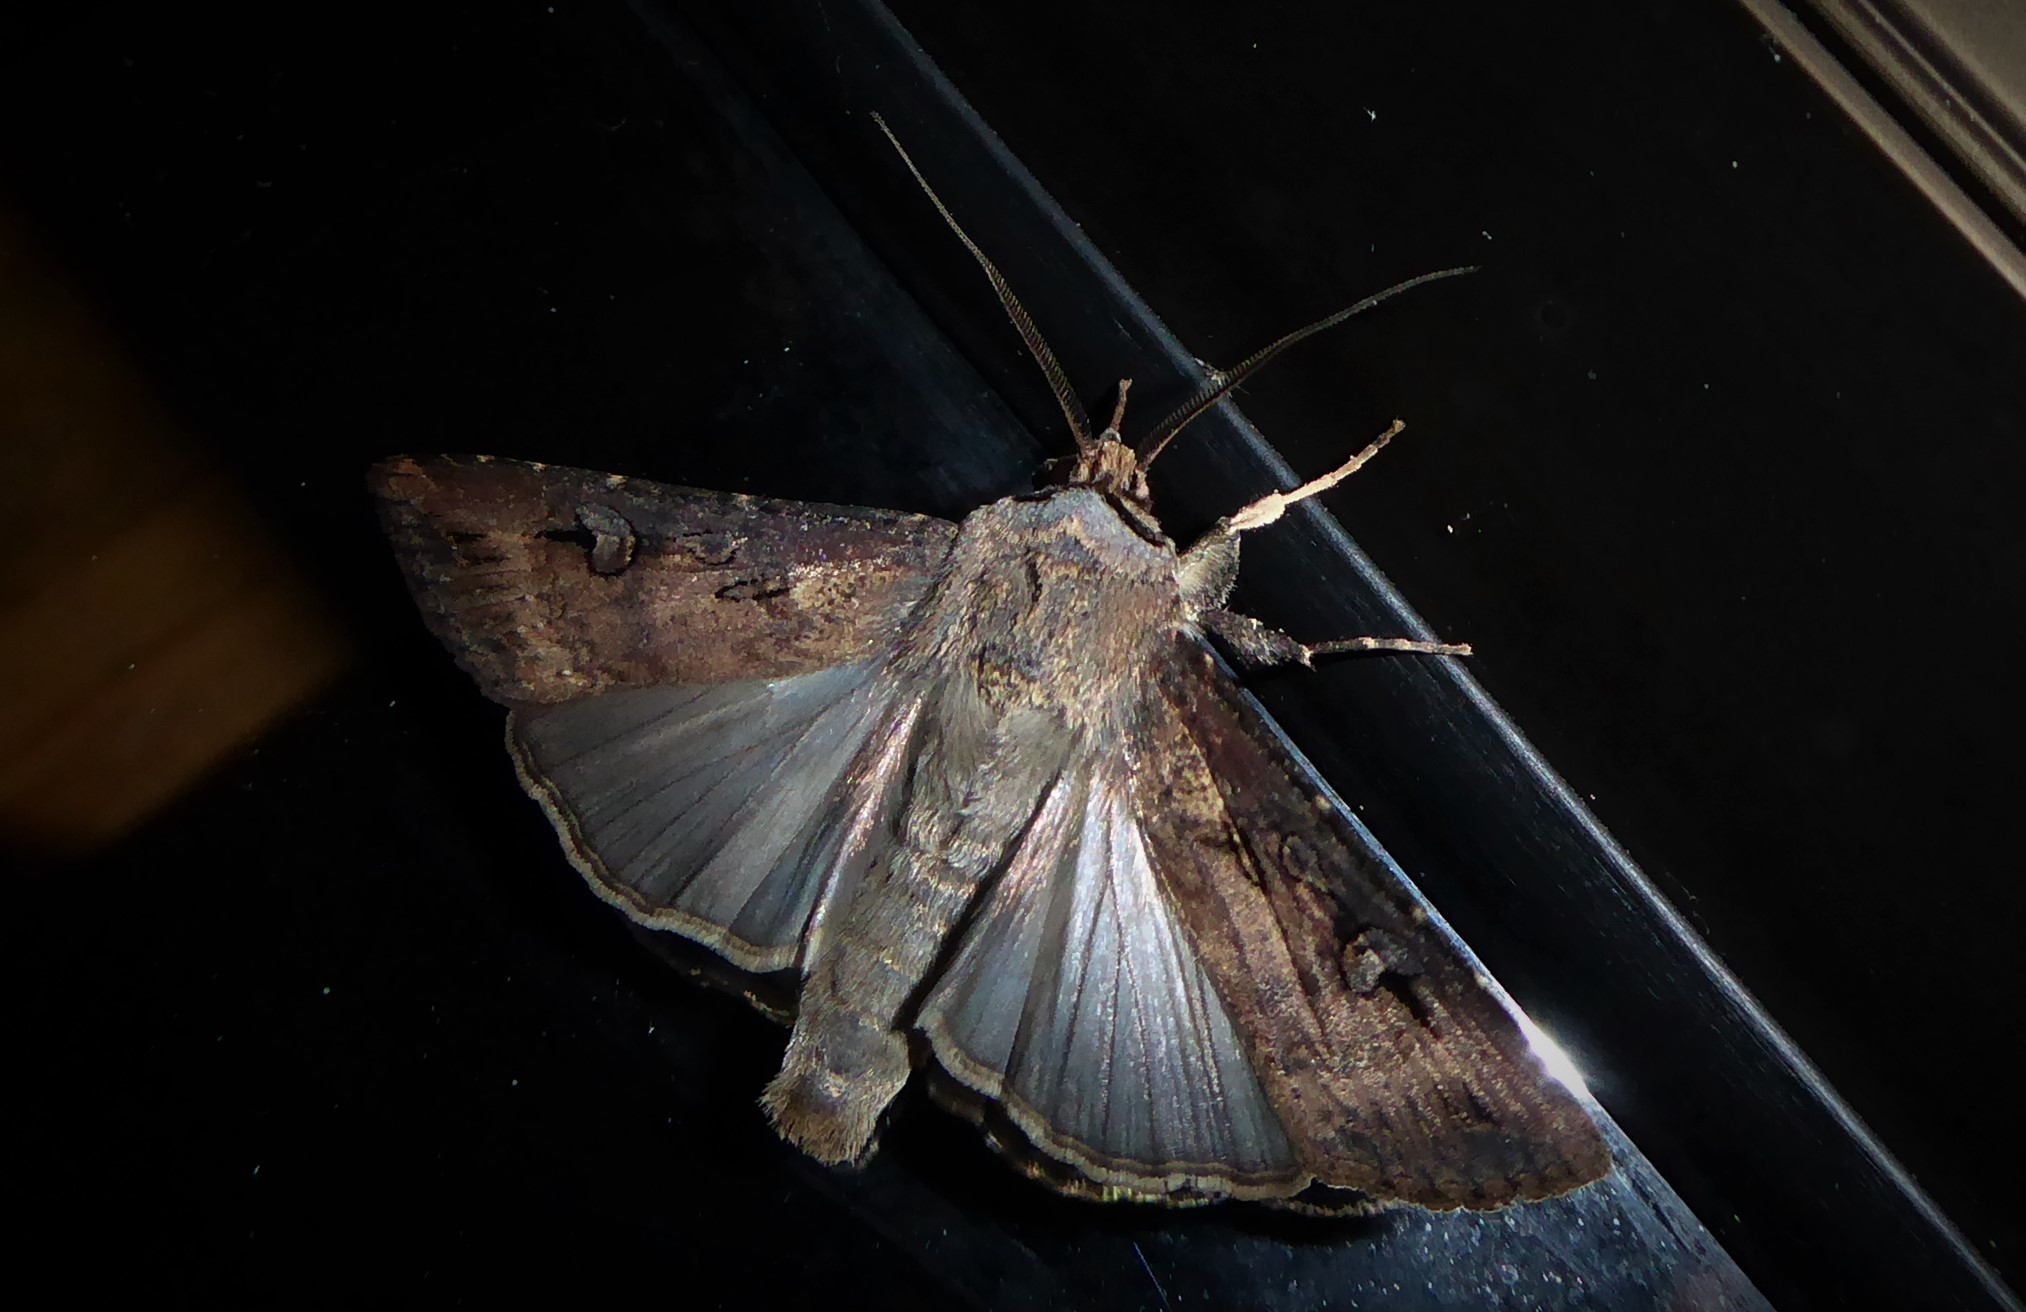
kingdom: Animalia
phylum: Arthropoda
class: Insecta
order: Lepidoptera
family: Noctuidae
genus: Agrotis
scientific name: Agrotis ipsilon
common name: Dark sword-grass
